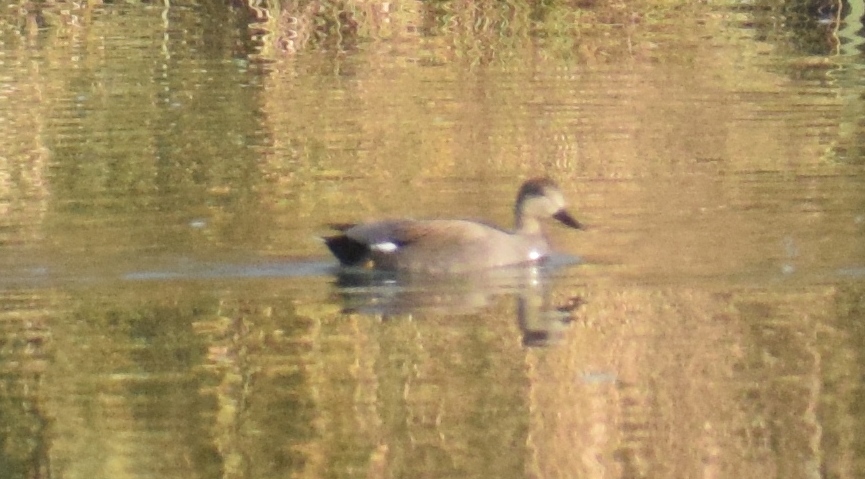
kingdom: Animalia
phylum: Chordata
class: Aves
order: Anseriformes
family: Anatidae
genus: Mareca
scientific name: Mareca strepera
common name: Gadwall
